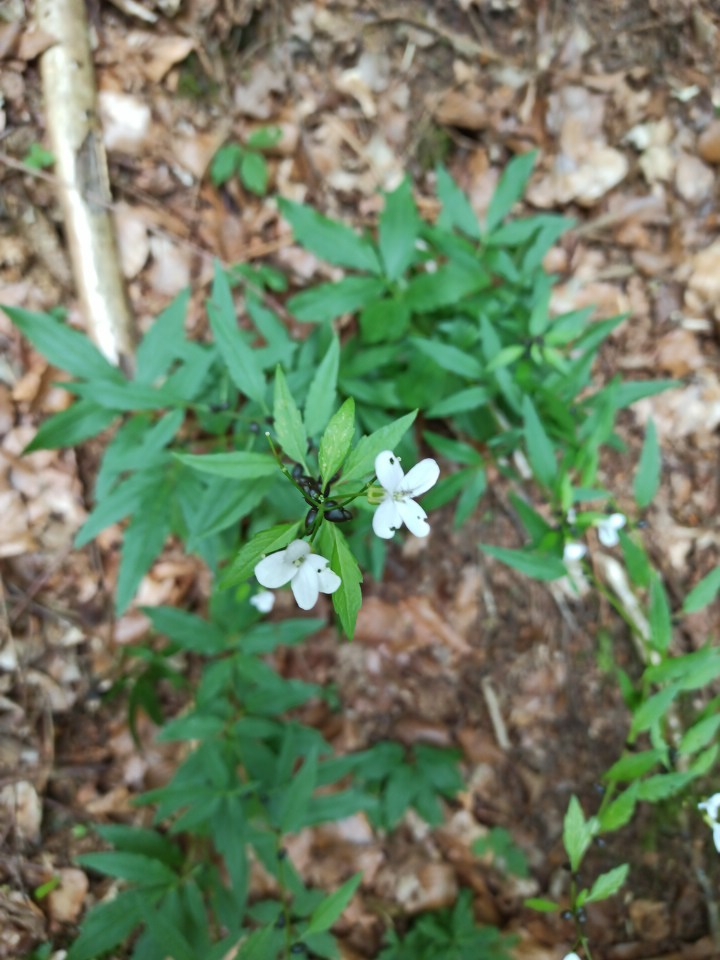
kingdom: Plantae
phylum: Tracheophyta
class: Magnoliopsida
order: Brassicales
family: Brassicaceae
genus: Cardamine
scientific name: Cardamine bulbifera
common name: Coralroot bittercress
